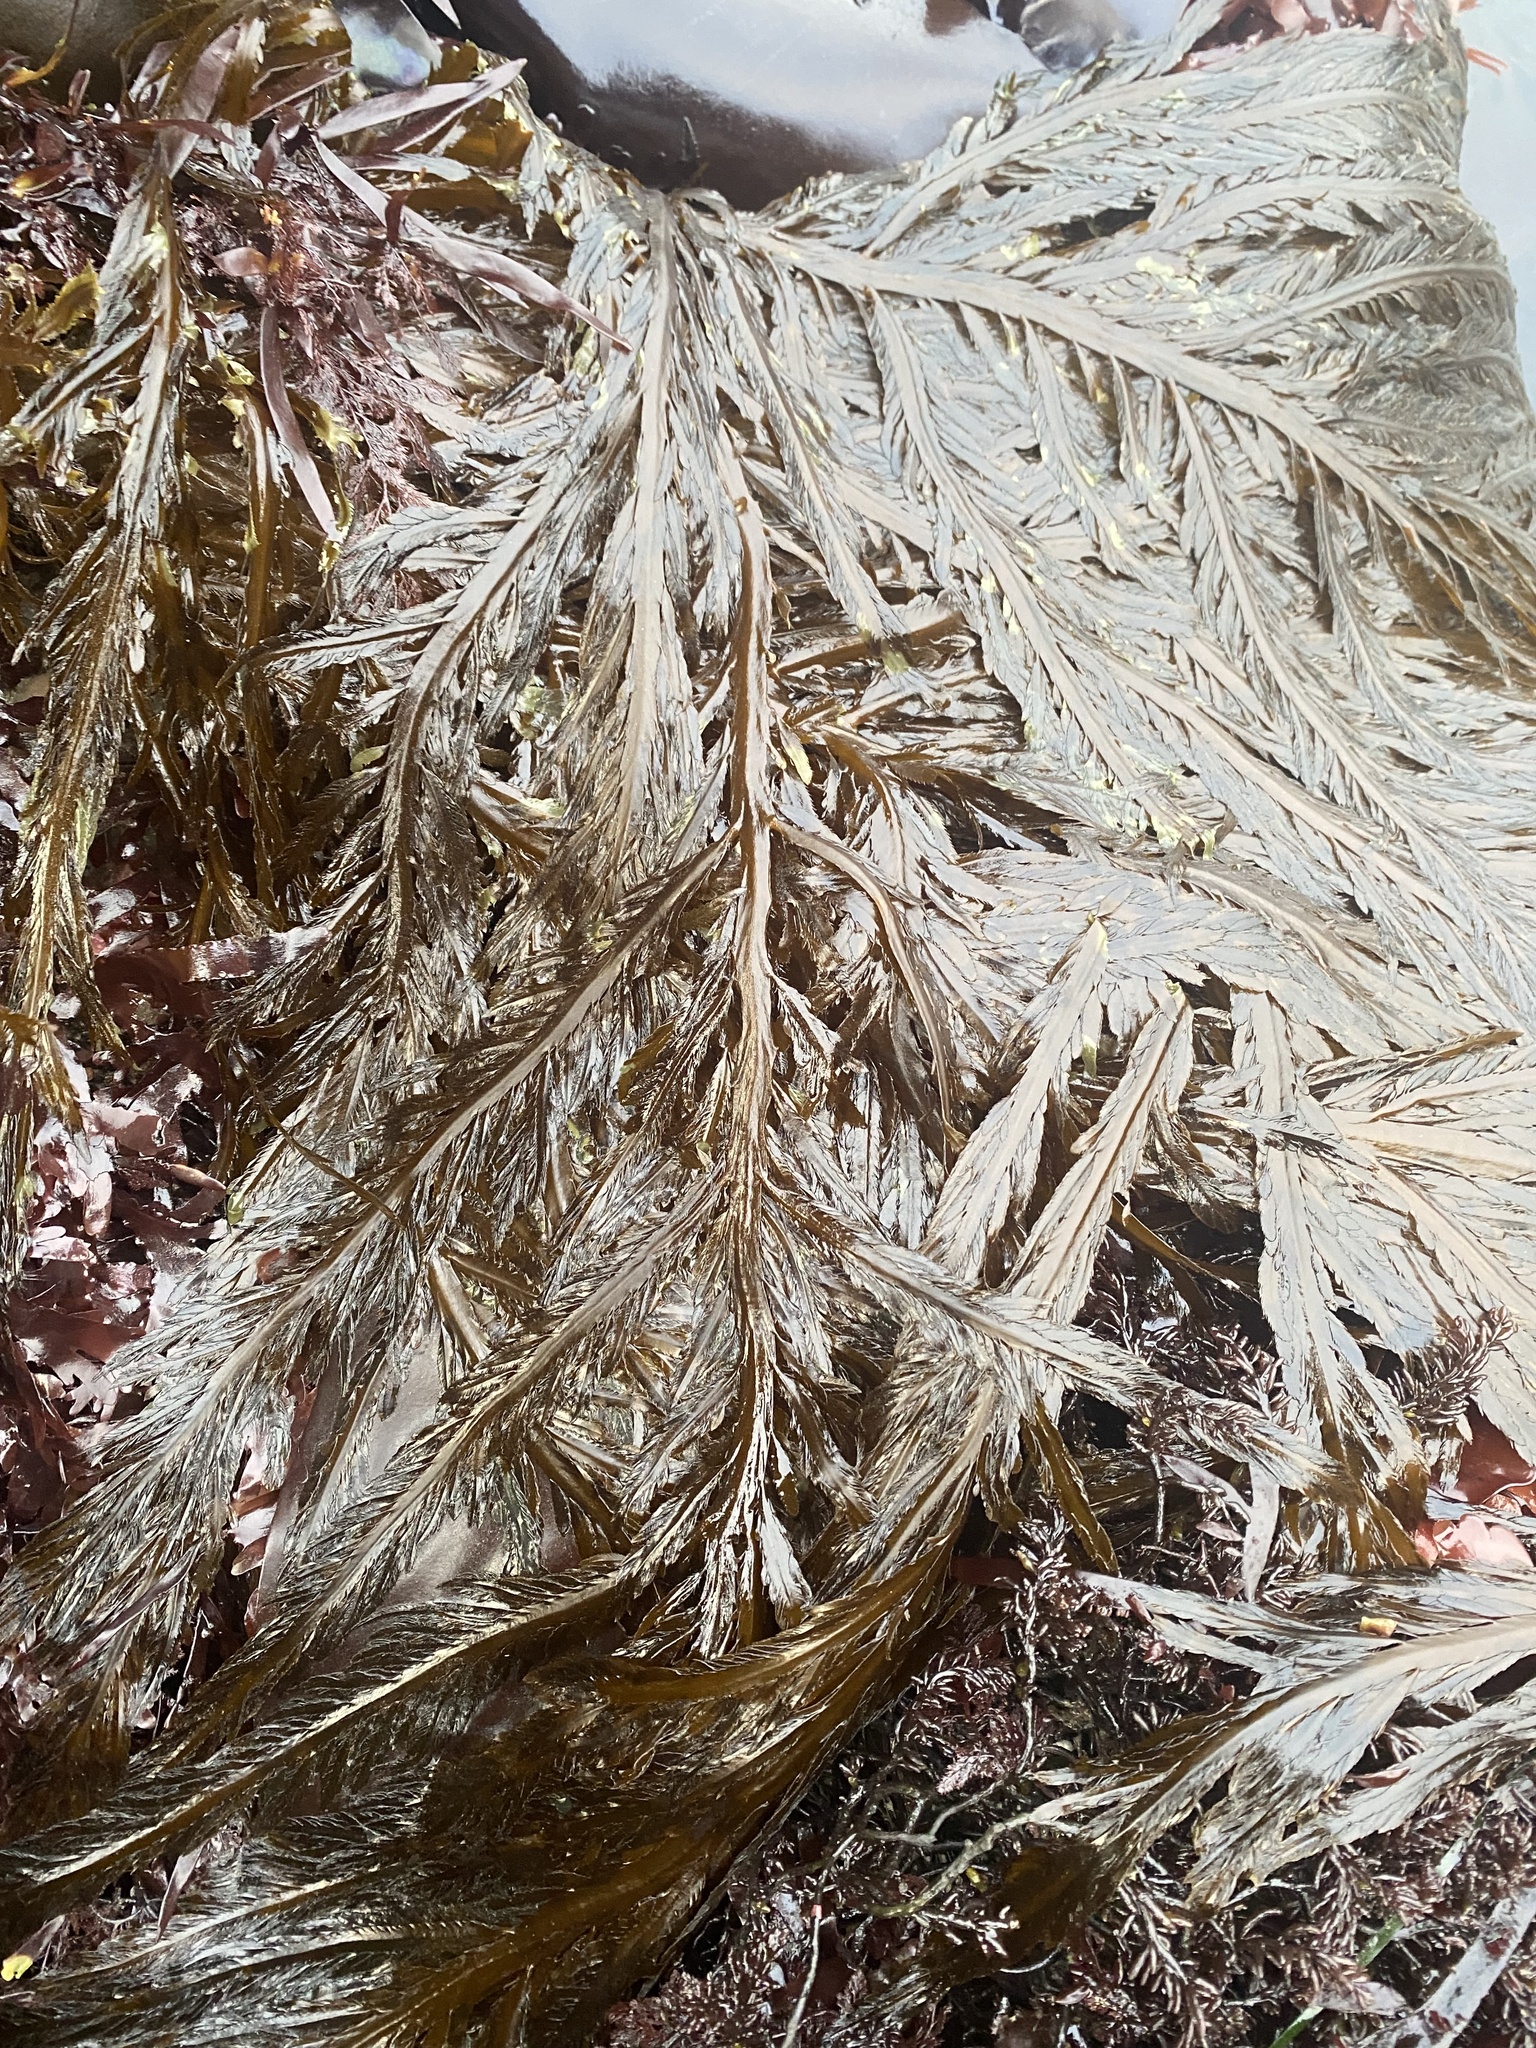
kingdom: Chromista
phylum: Ochrophyta
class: Phaeophyceae
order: Desmarestiales
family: Desmarestiaceae
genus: Desmarestia
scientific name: Desmarestia ligulata
